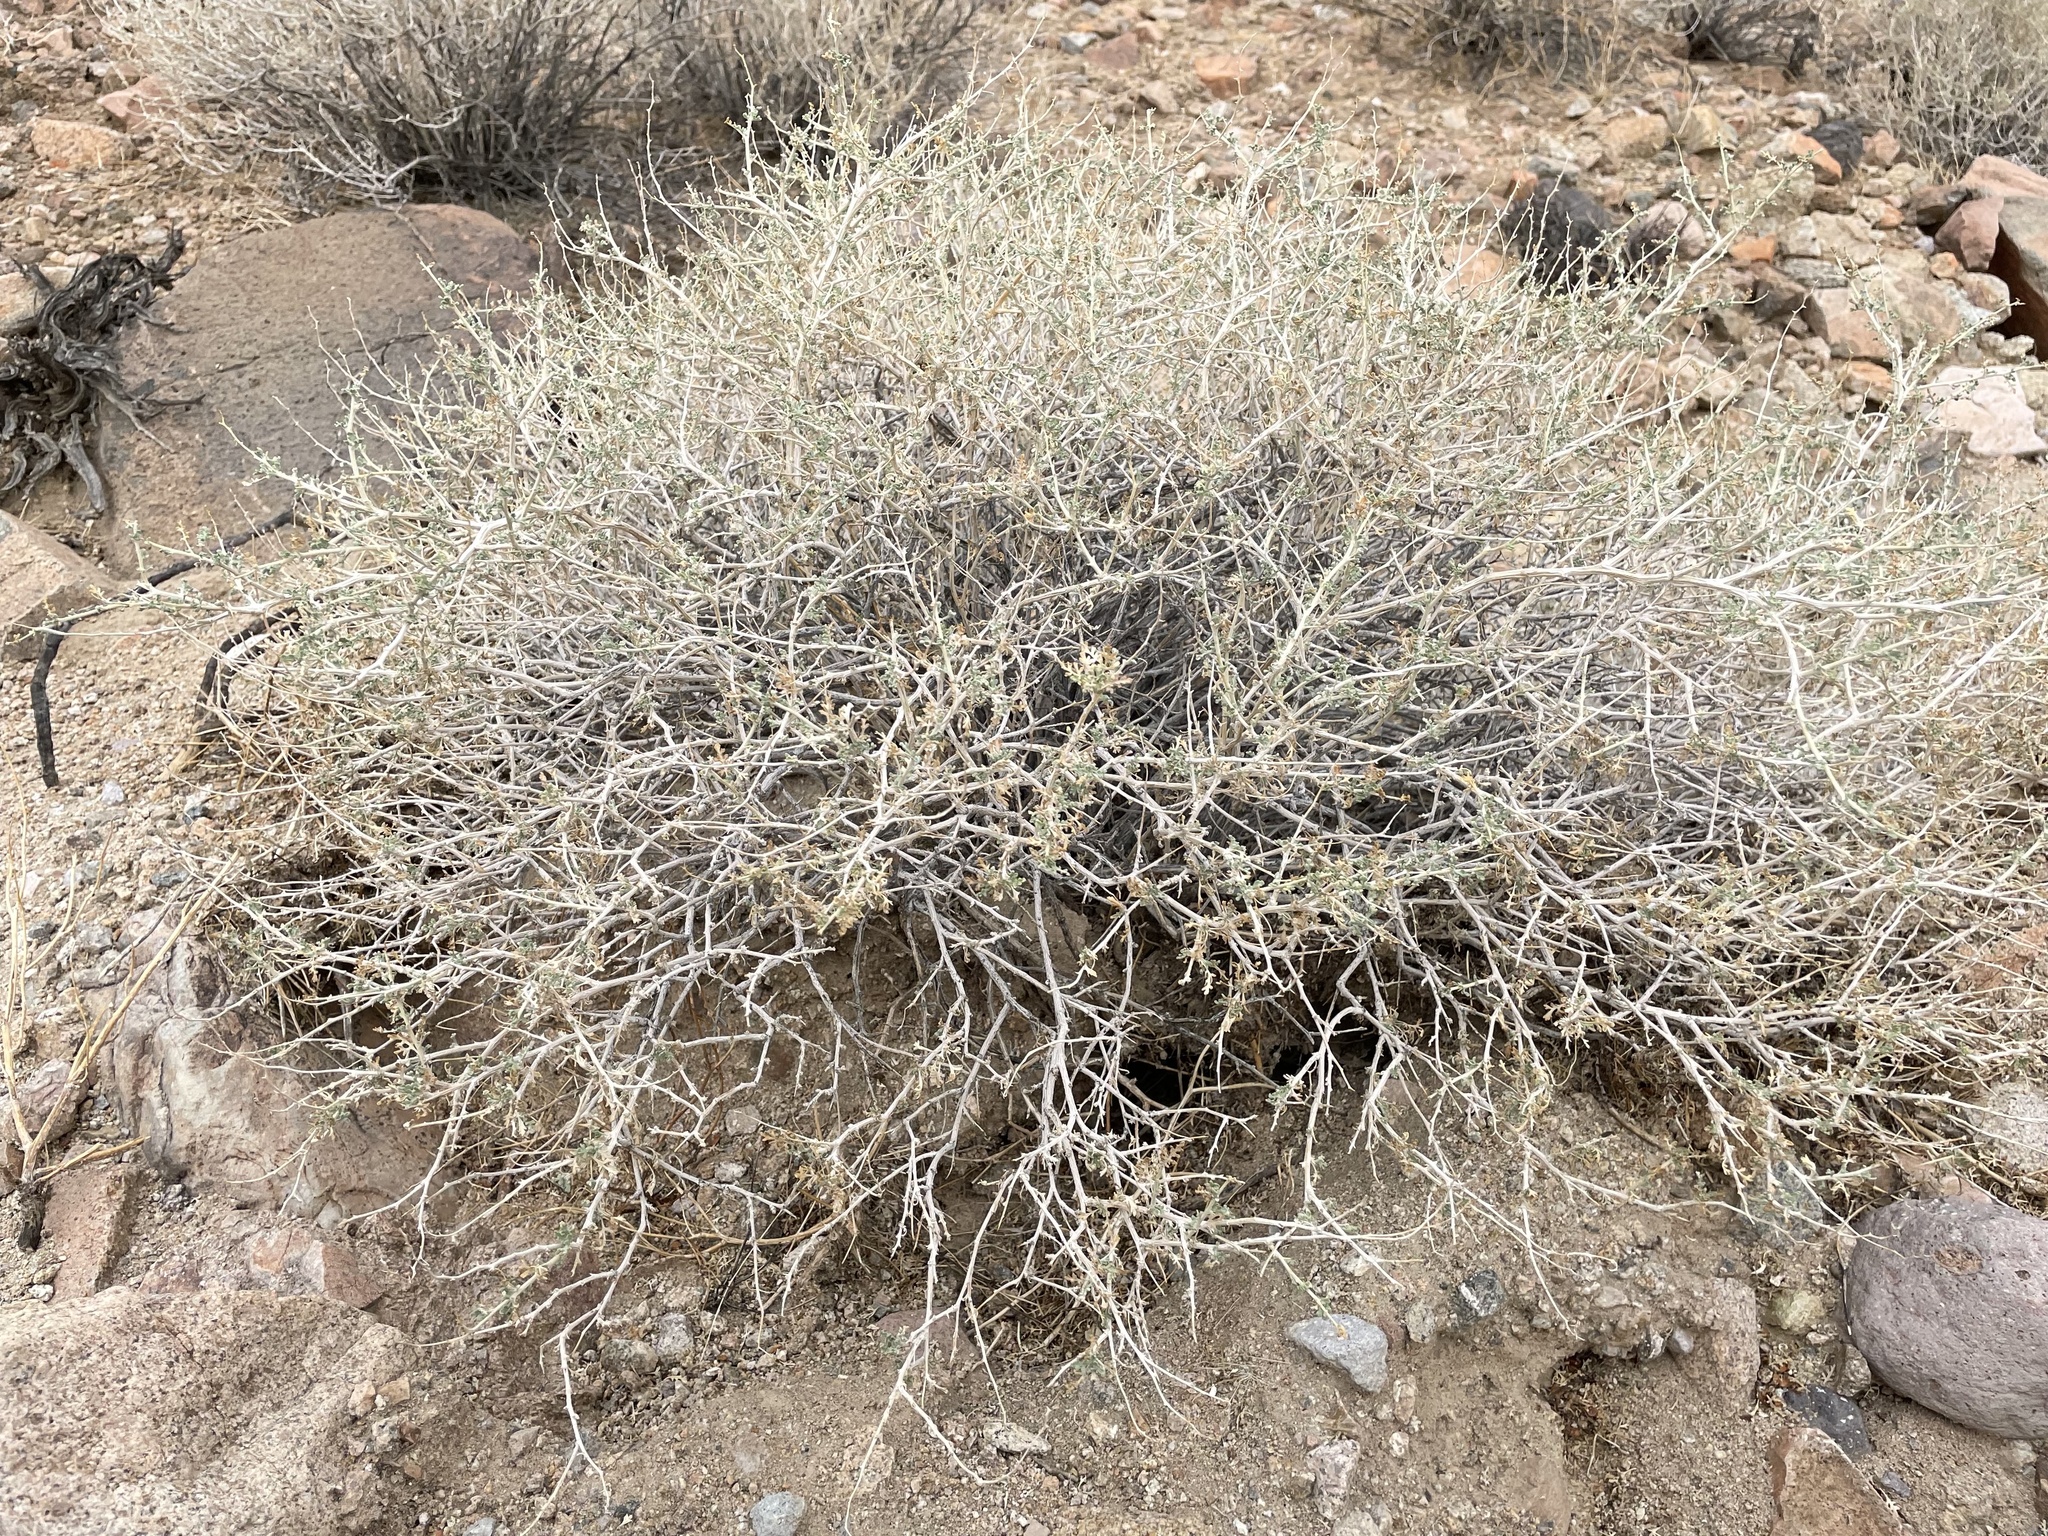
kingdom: Plantae
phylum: Tracheophyta
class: Magnoliopsida
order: Asterales
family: Asteraceae
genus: Ambrosia
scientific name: Ambrosia dumosa
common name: Bur-sage
